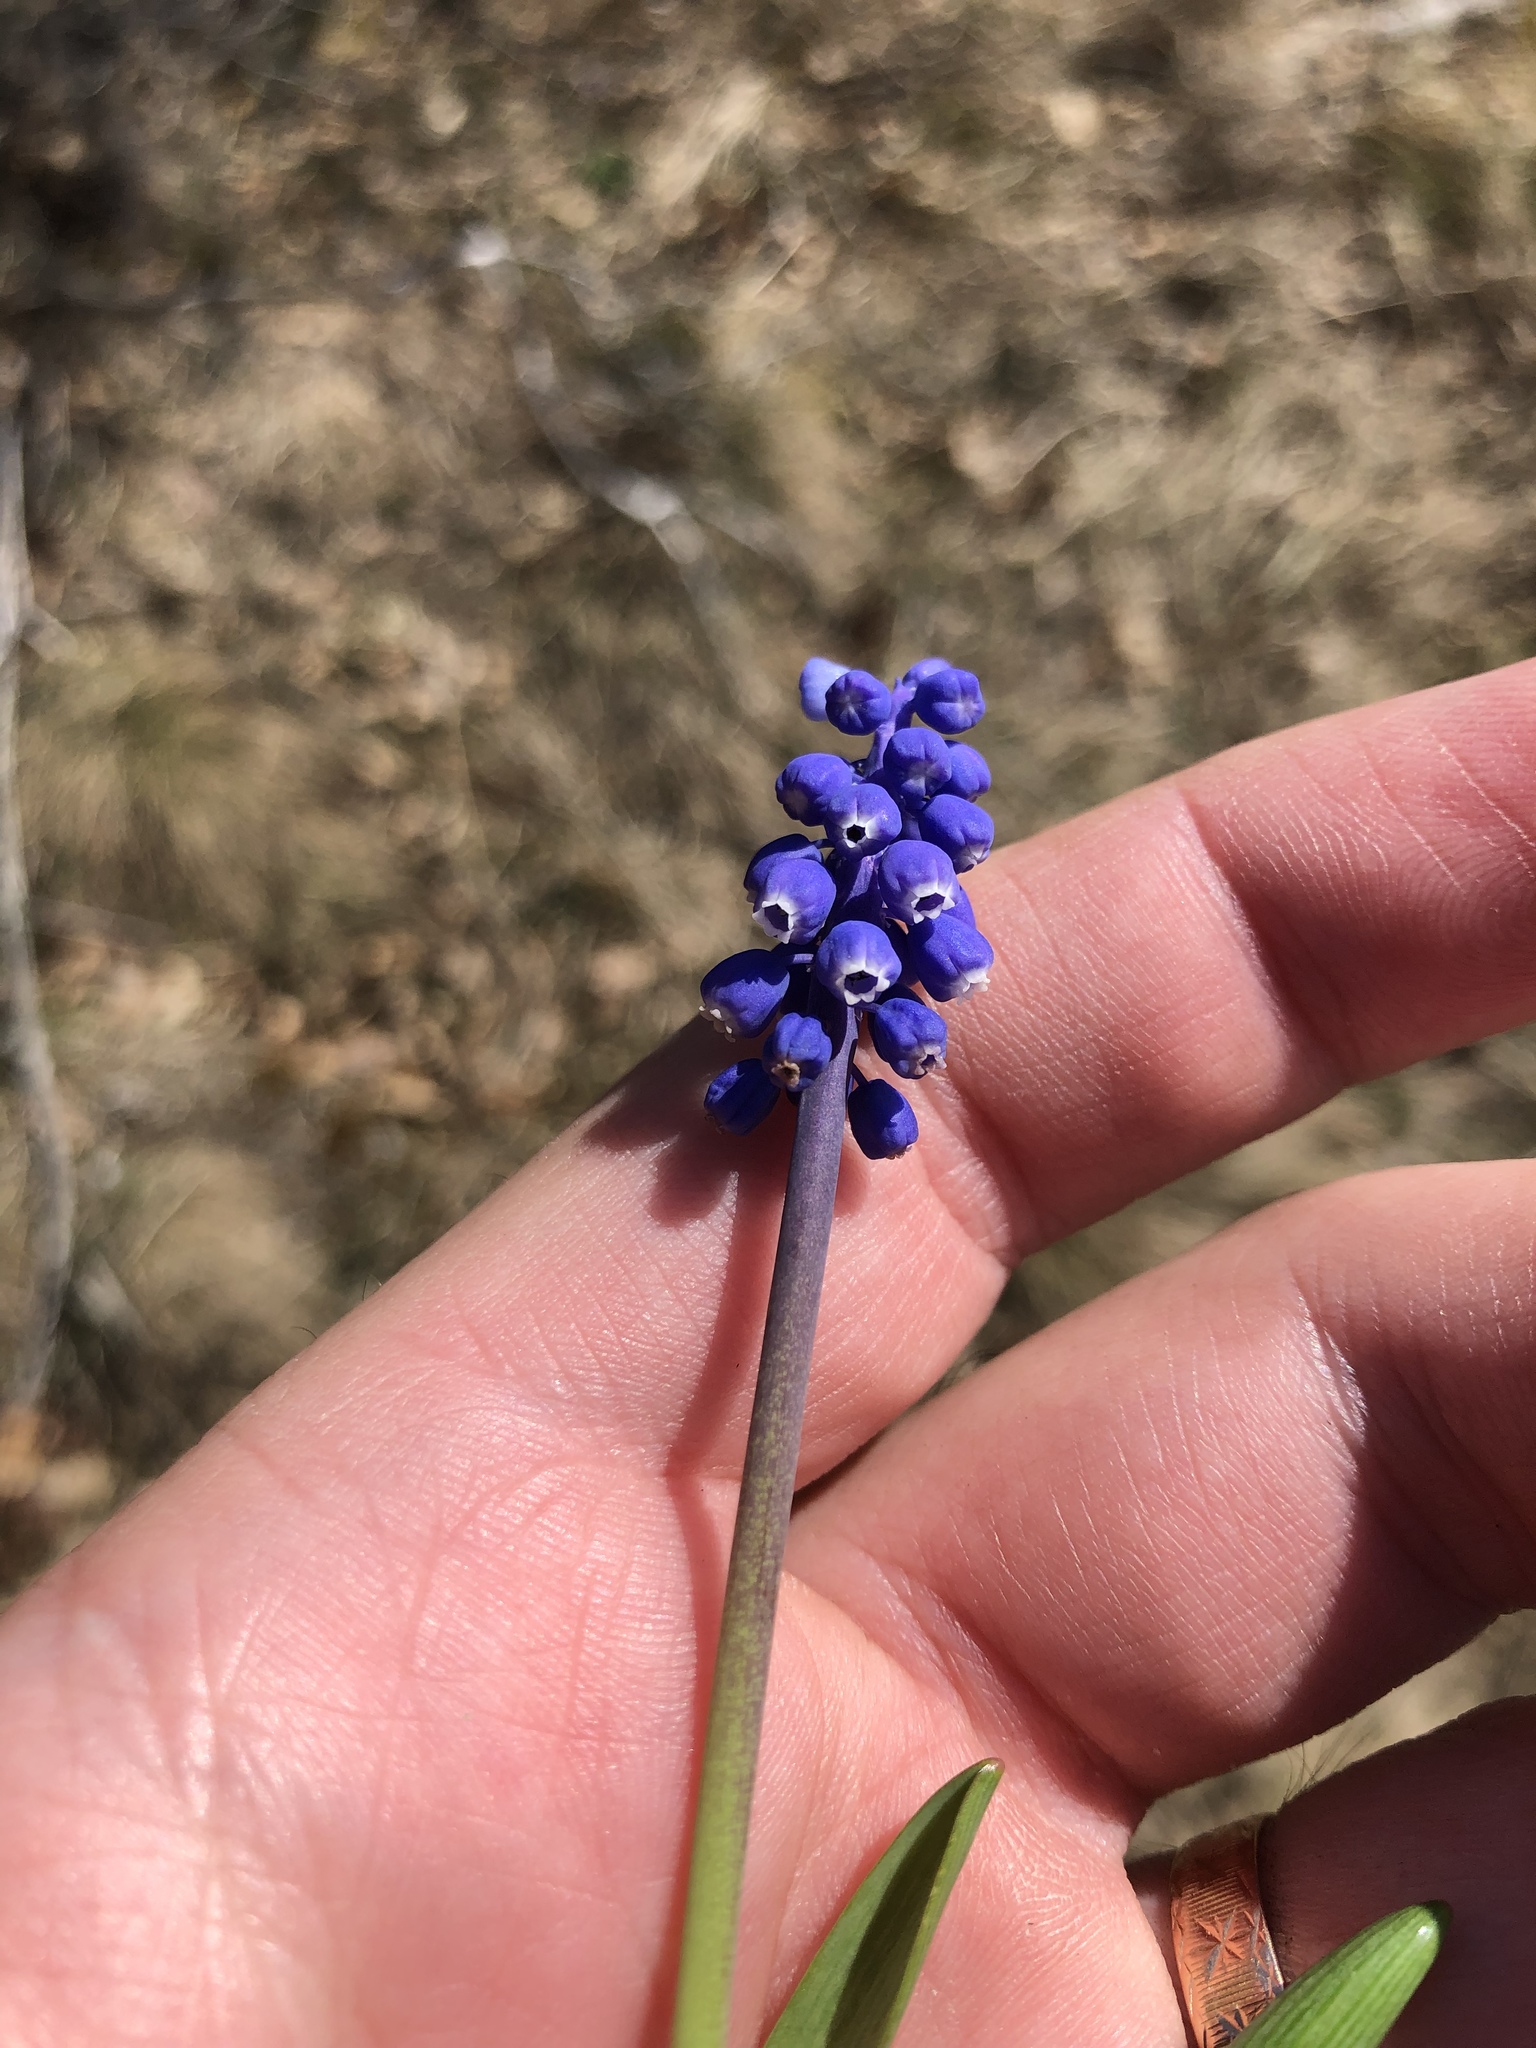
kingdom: Plantae
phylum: Tracheophyta
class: Liliopsida
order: Asparagales
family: Asparagaceae
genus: Muscari
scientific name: Muscari neglectum
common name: Grape-hyacinth
